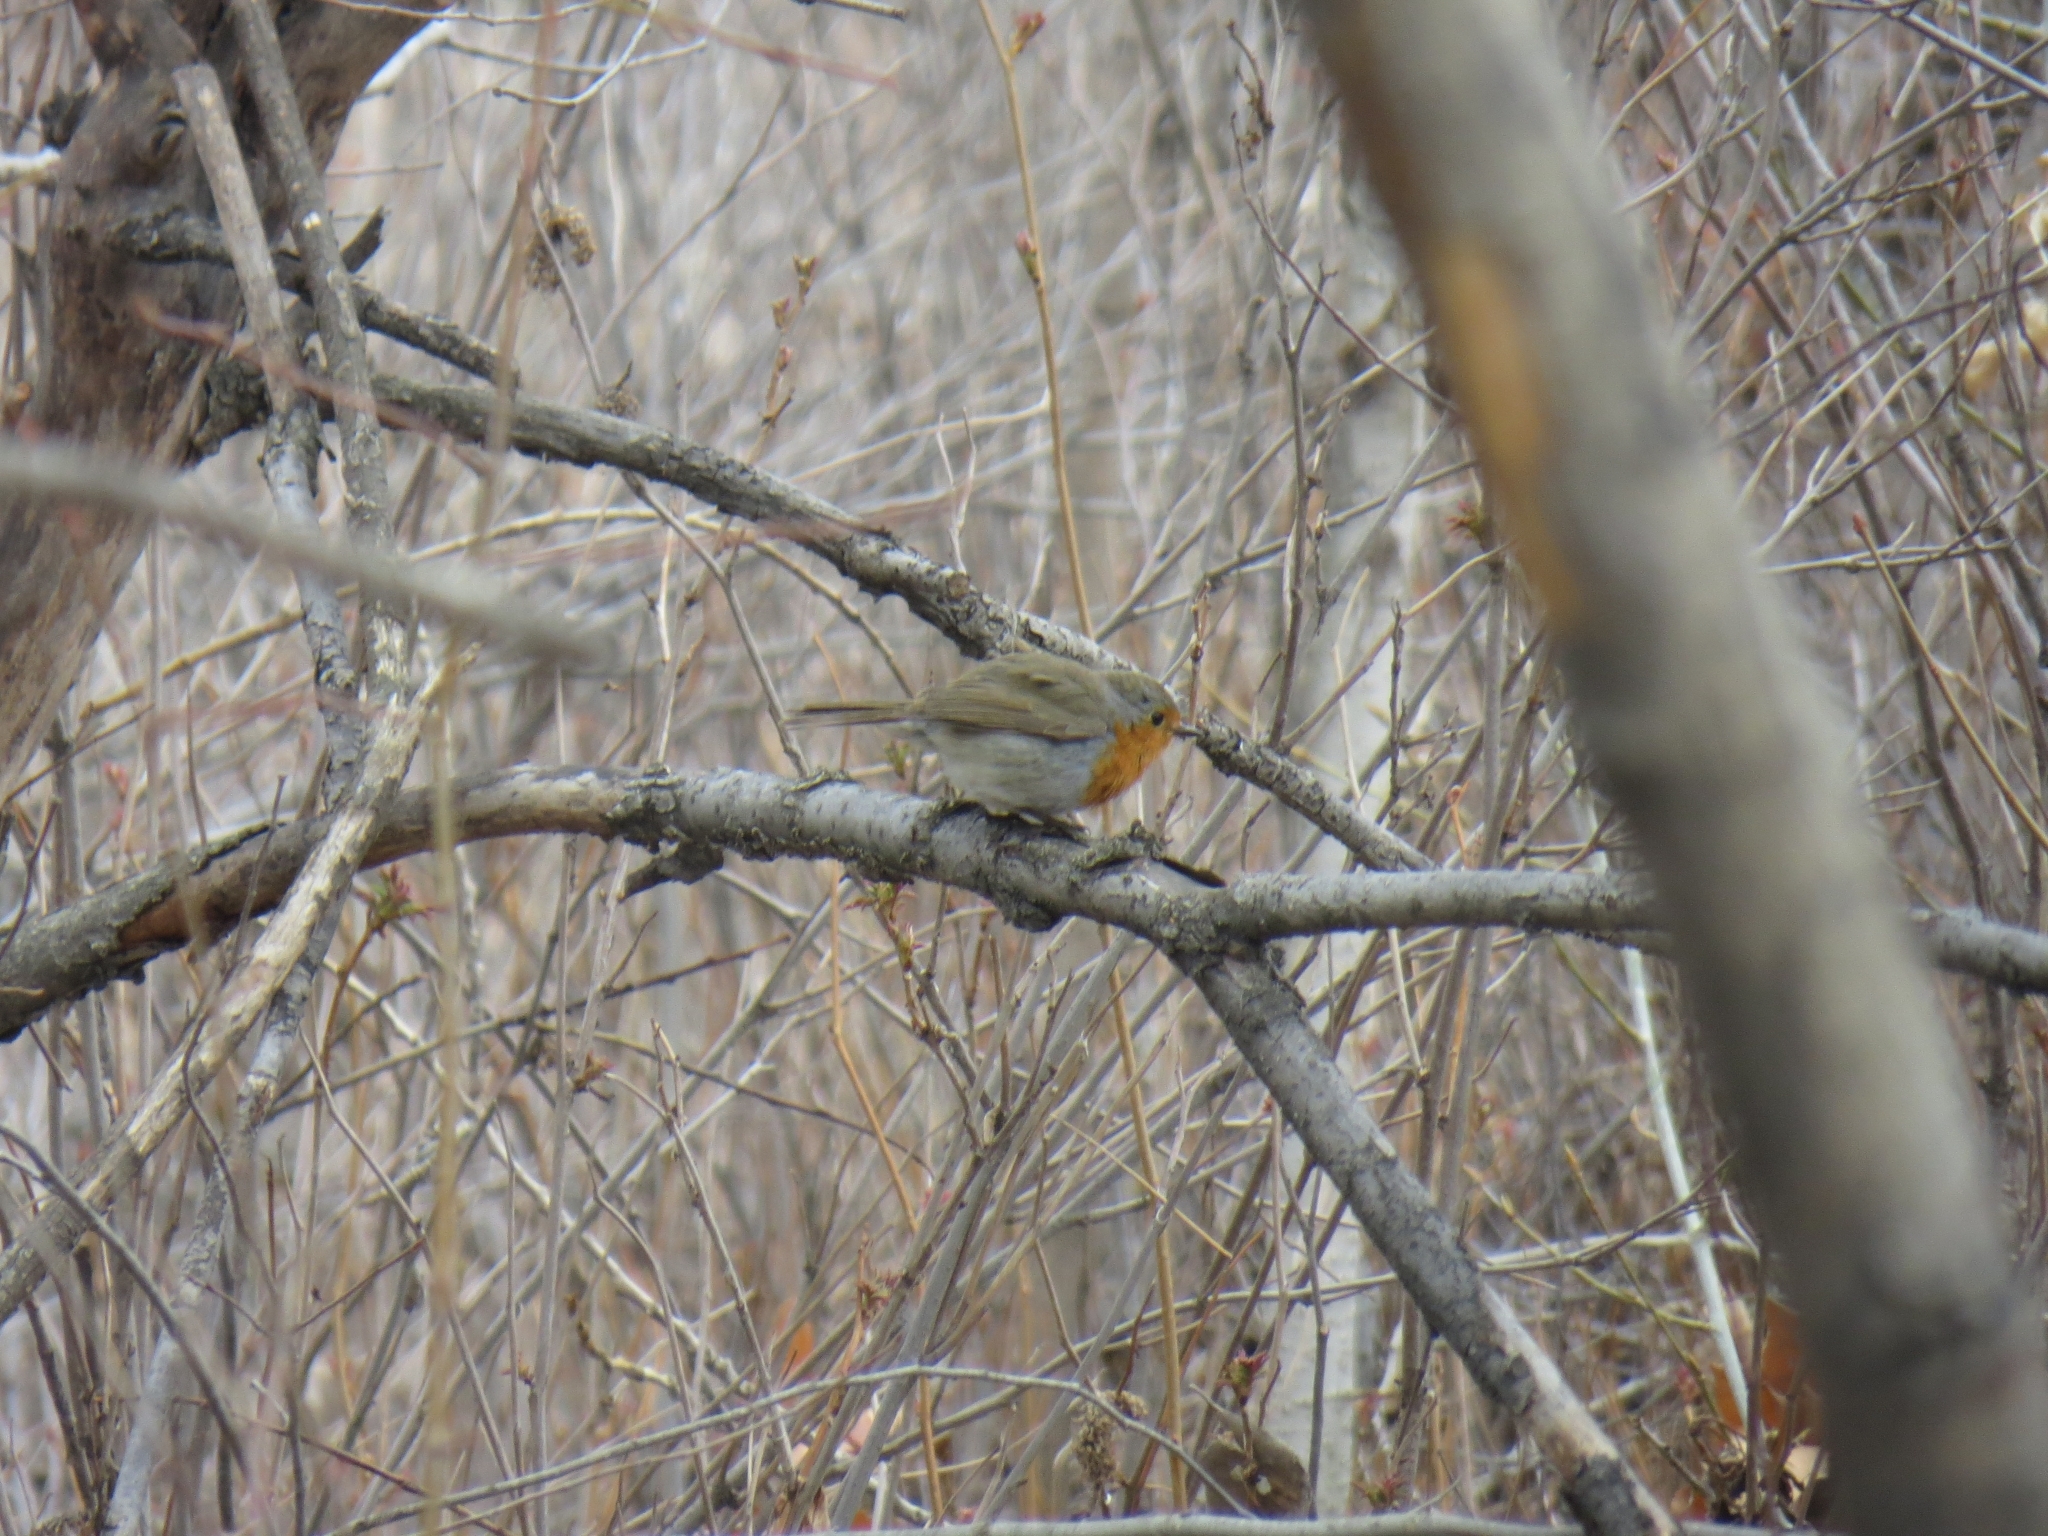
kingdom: Animalia
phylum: Chordata
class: Aves
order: Passeriformes
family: Muscicapidae
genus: Erithacus
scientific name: Erithacus rubecula
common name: European robin
